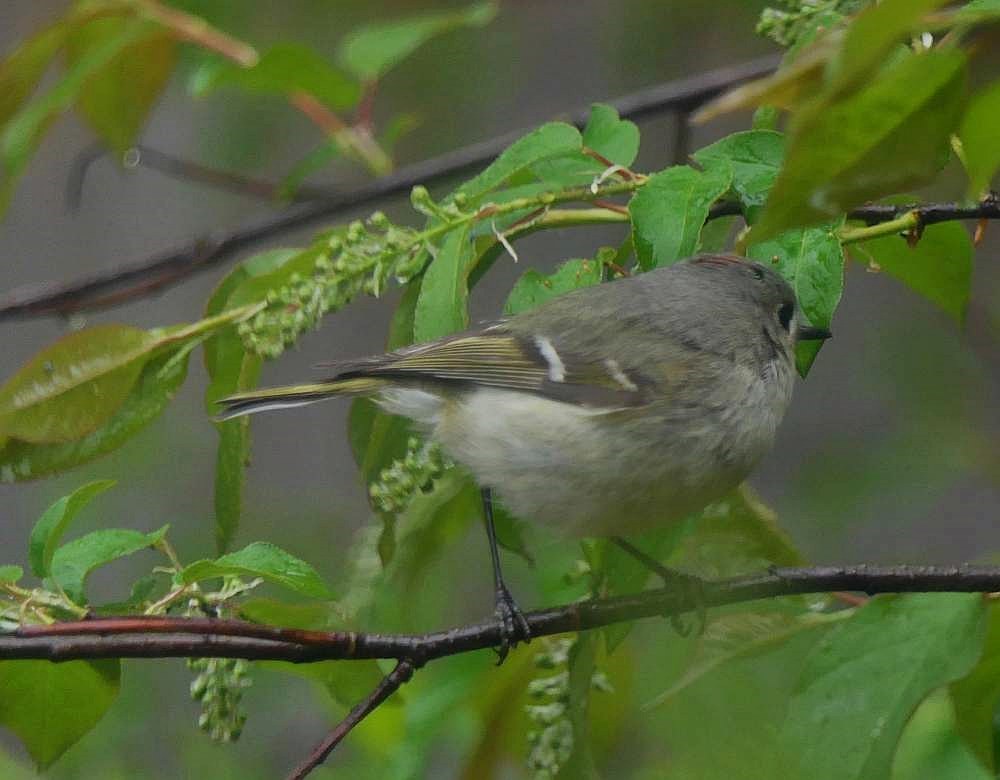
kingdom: Animalia
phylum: Chordata
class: Aves
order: Passeriformes
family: Regulidae
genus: Regulus
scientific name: Regulus calendula
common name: Ruby-crowned kinglet
